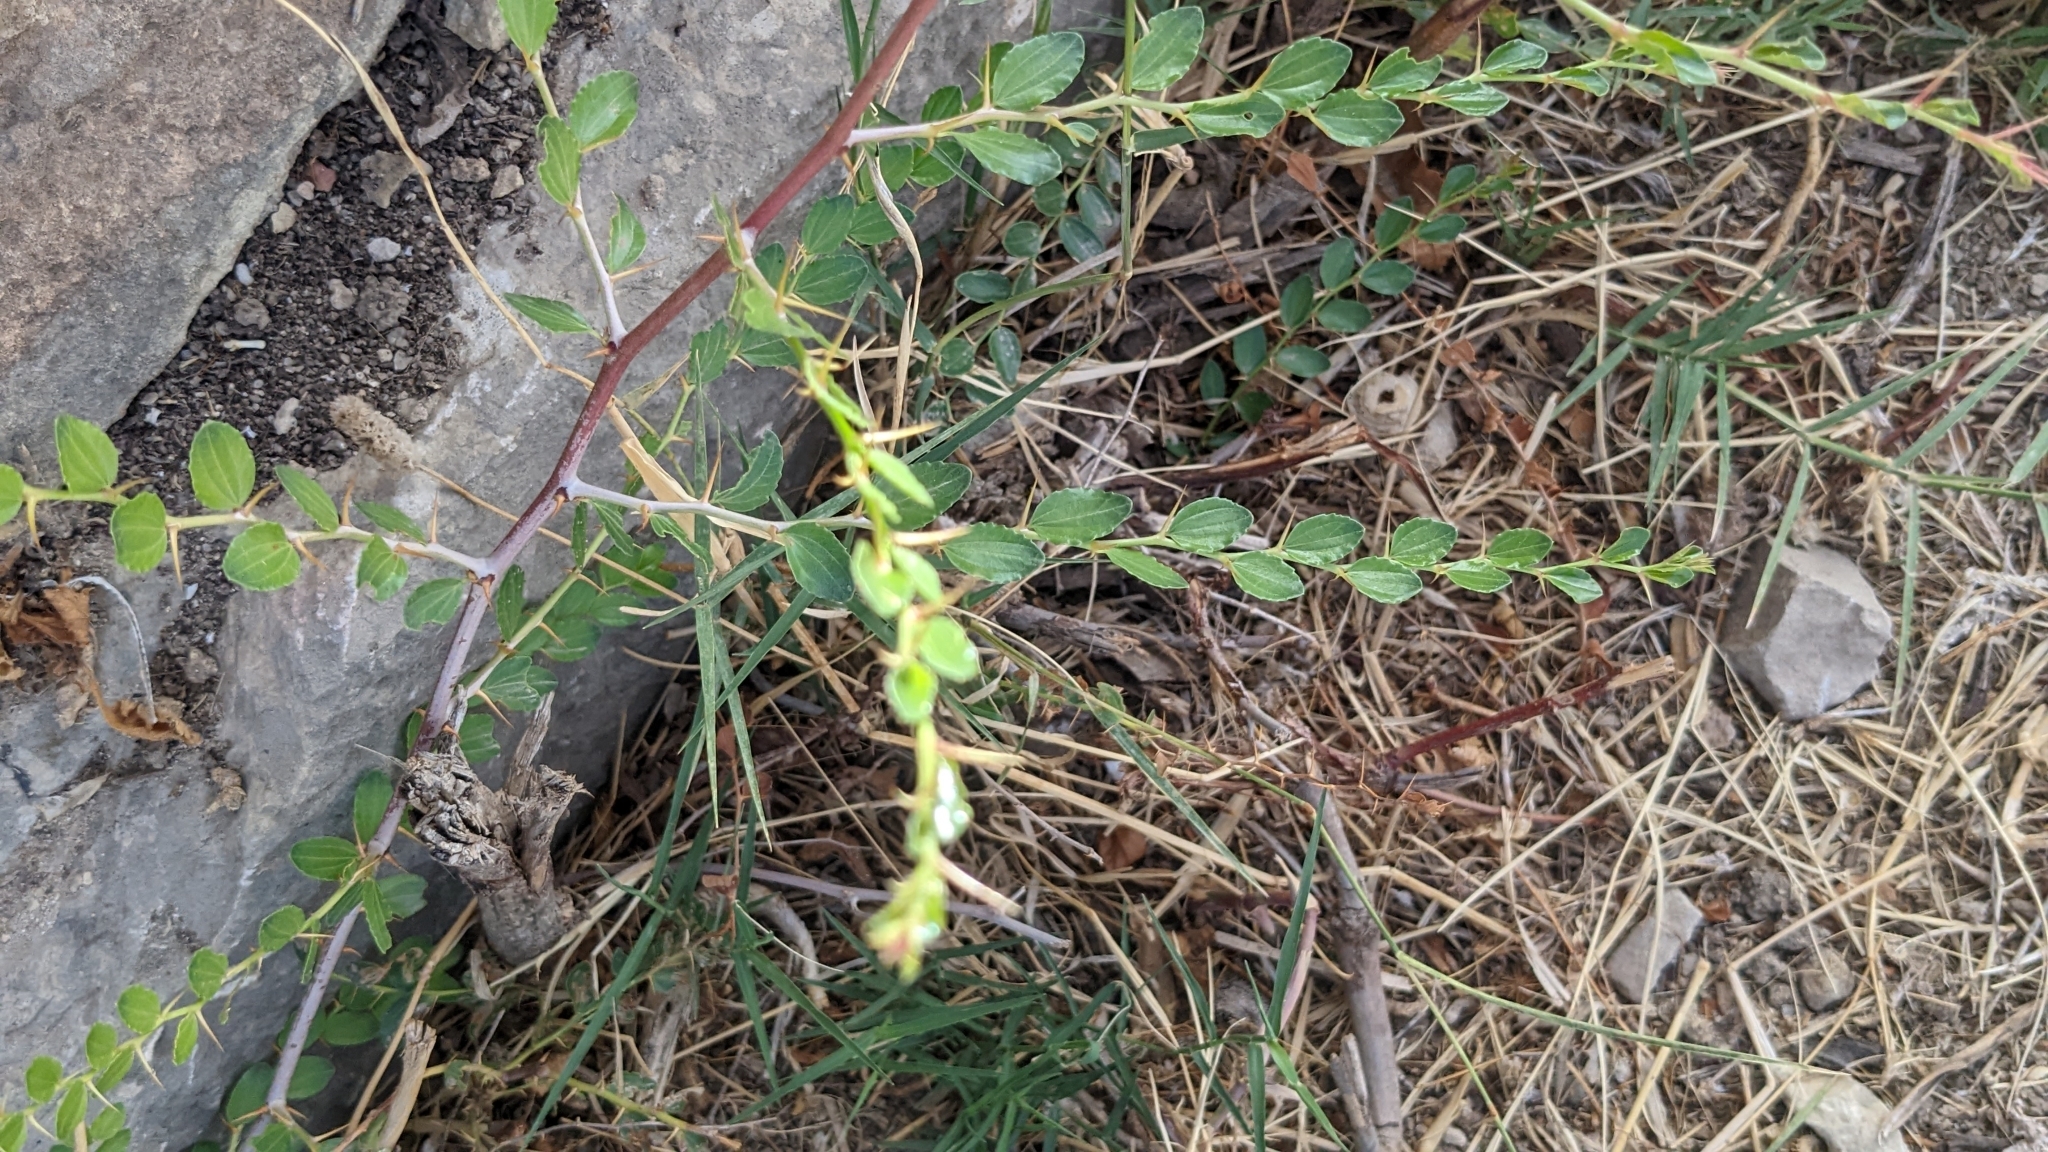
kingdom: Plantae
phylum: Tracheophyta
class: Magnoliopsida
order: Rosales
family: Rhamnaceae
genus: Ziziphus
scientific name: Ziziphus lotus
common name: Lotus
